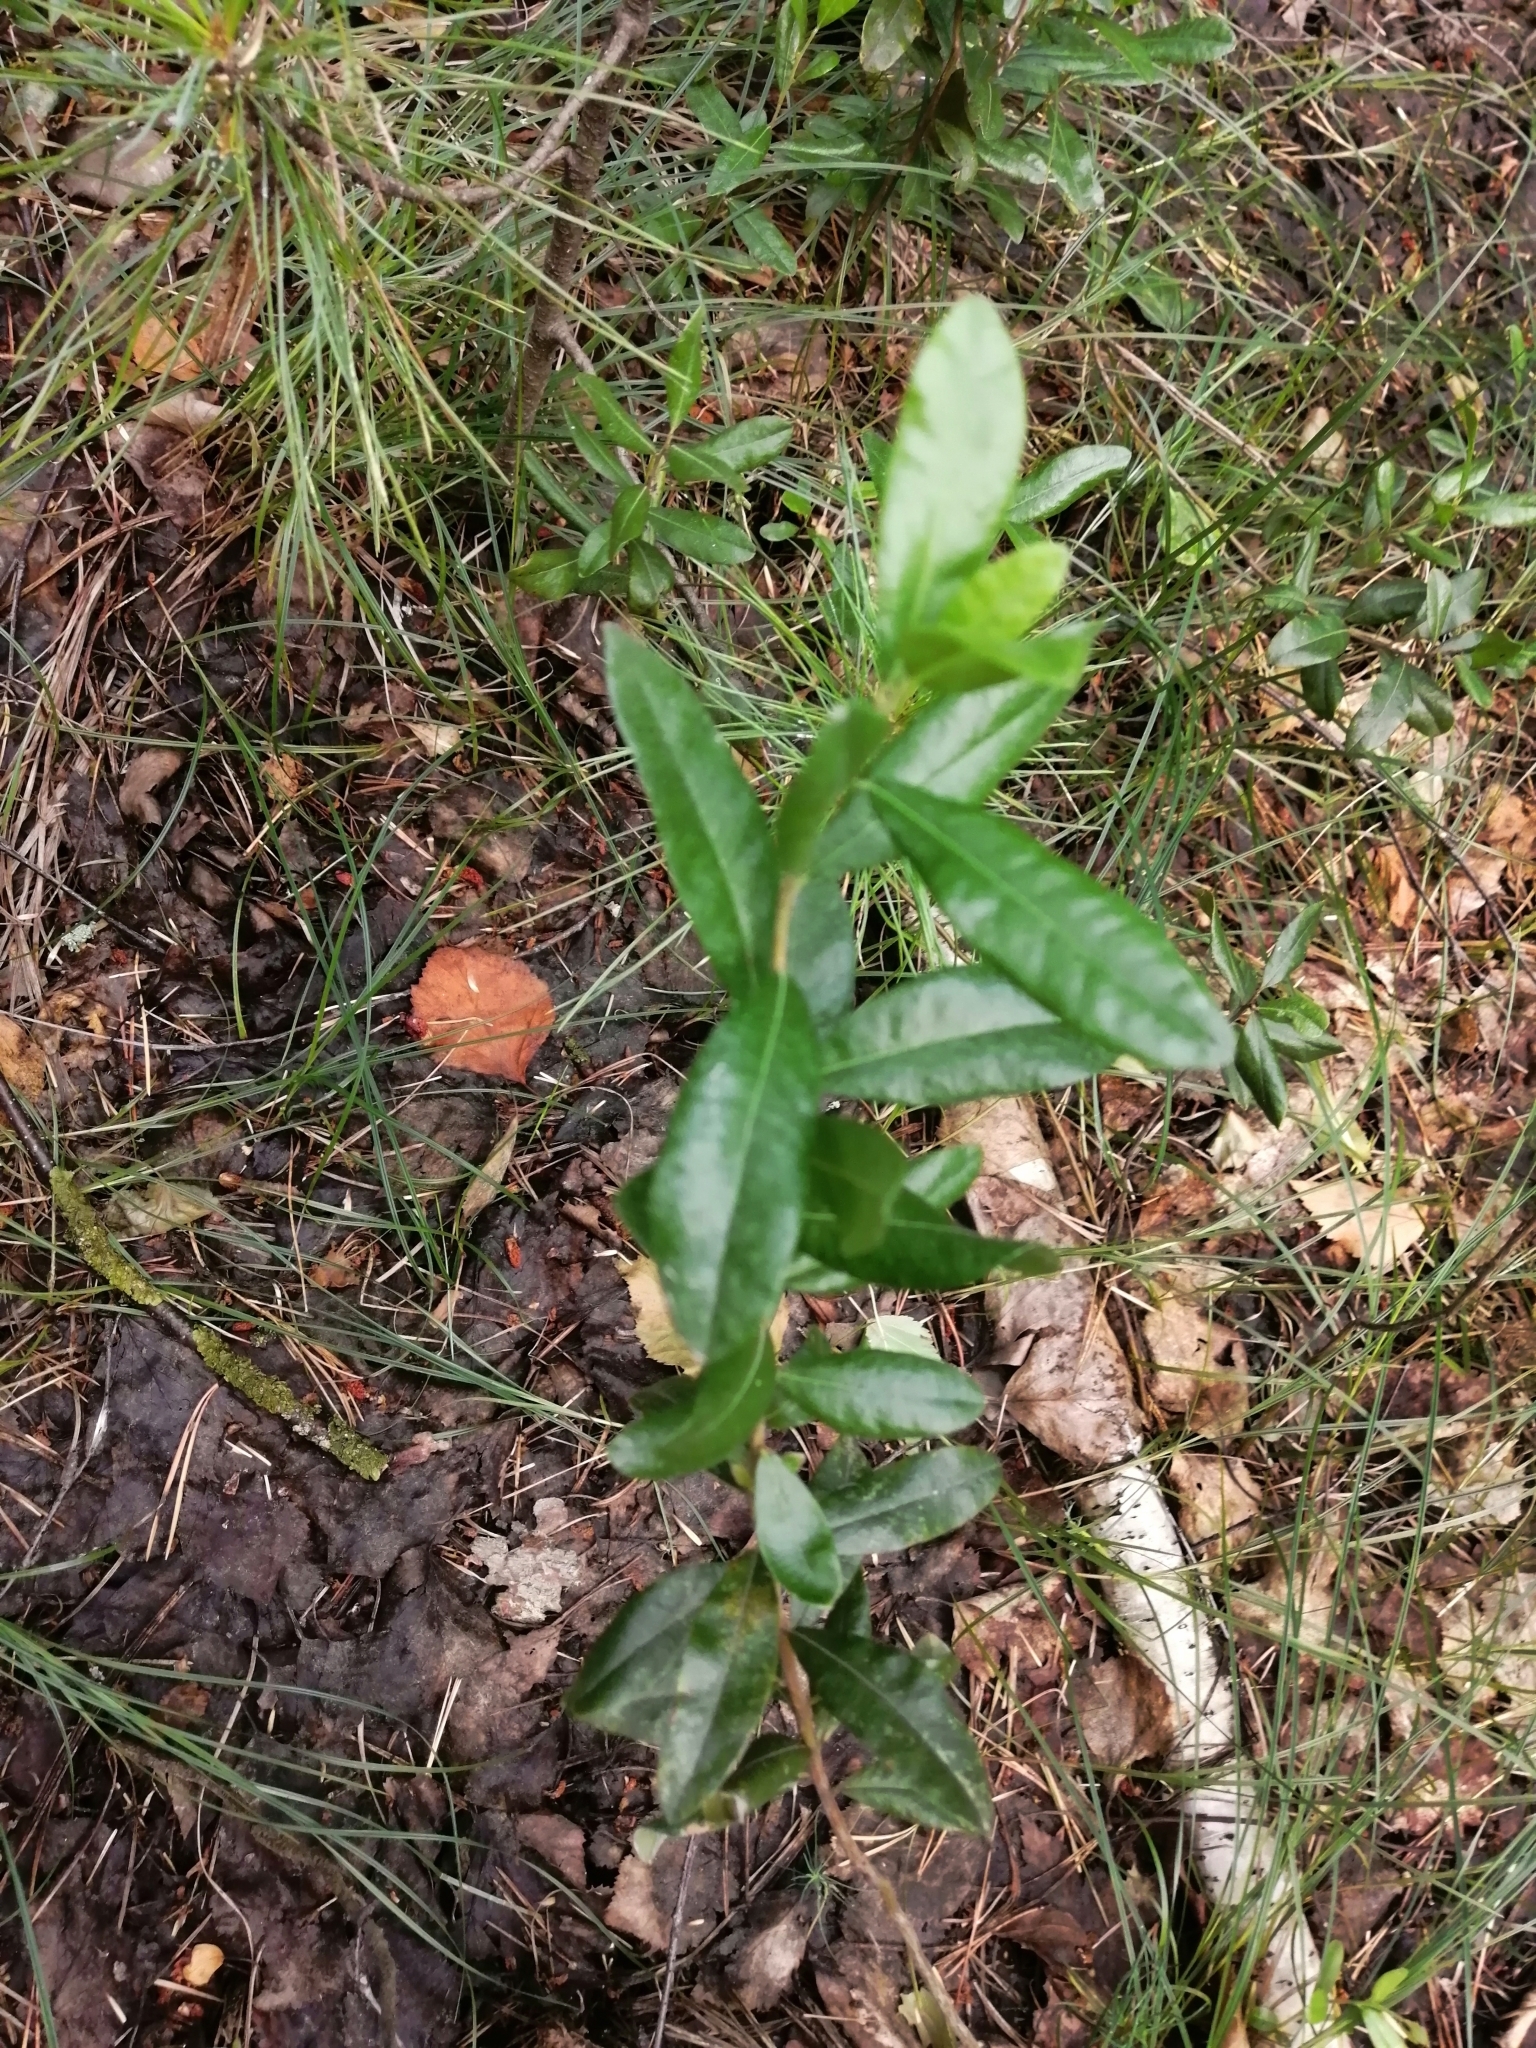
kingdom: Plantae
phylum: Tracheophyta
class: Magnoliopsida
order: Ericales
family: Ericaceae
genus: Chamaedaphne
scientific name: Chamaedaphne calyculata
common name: Leatherleaf
